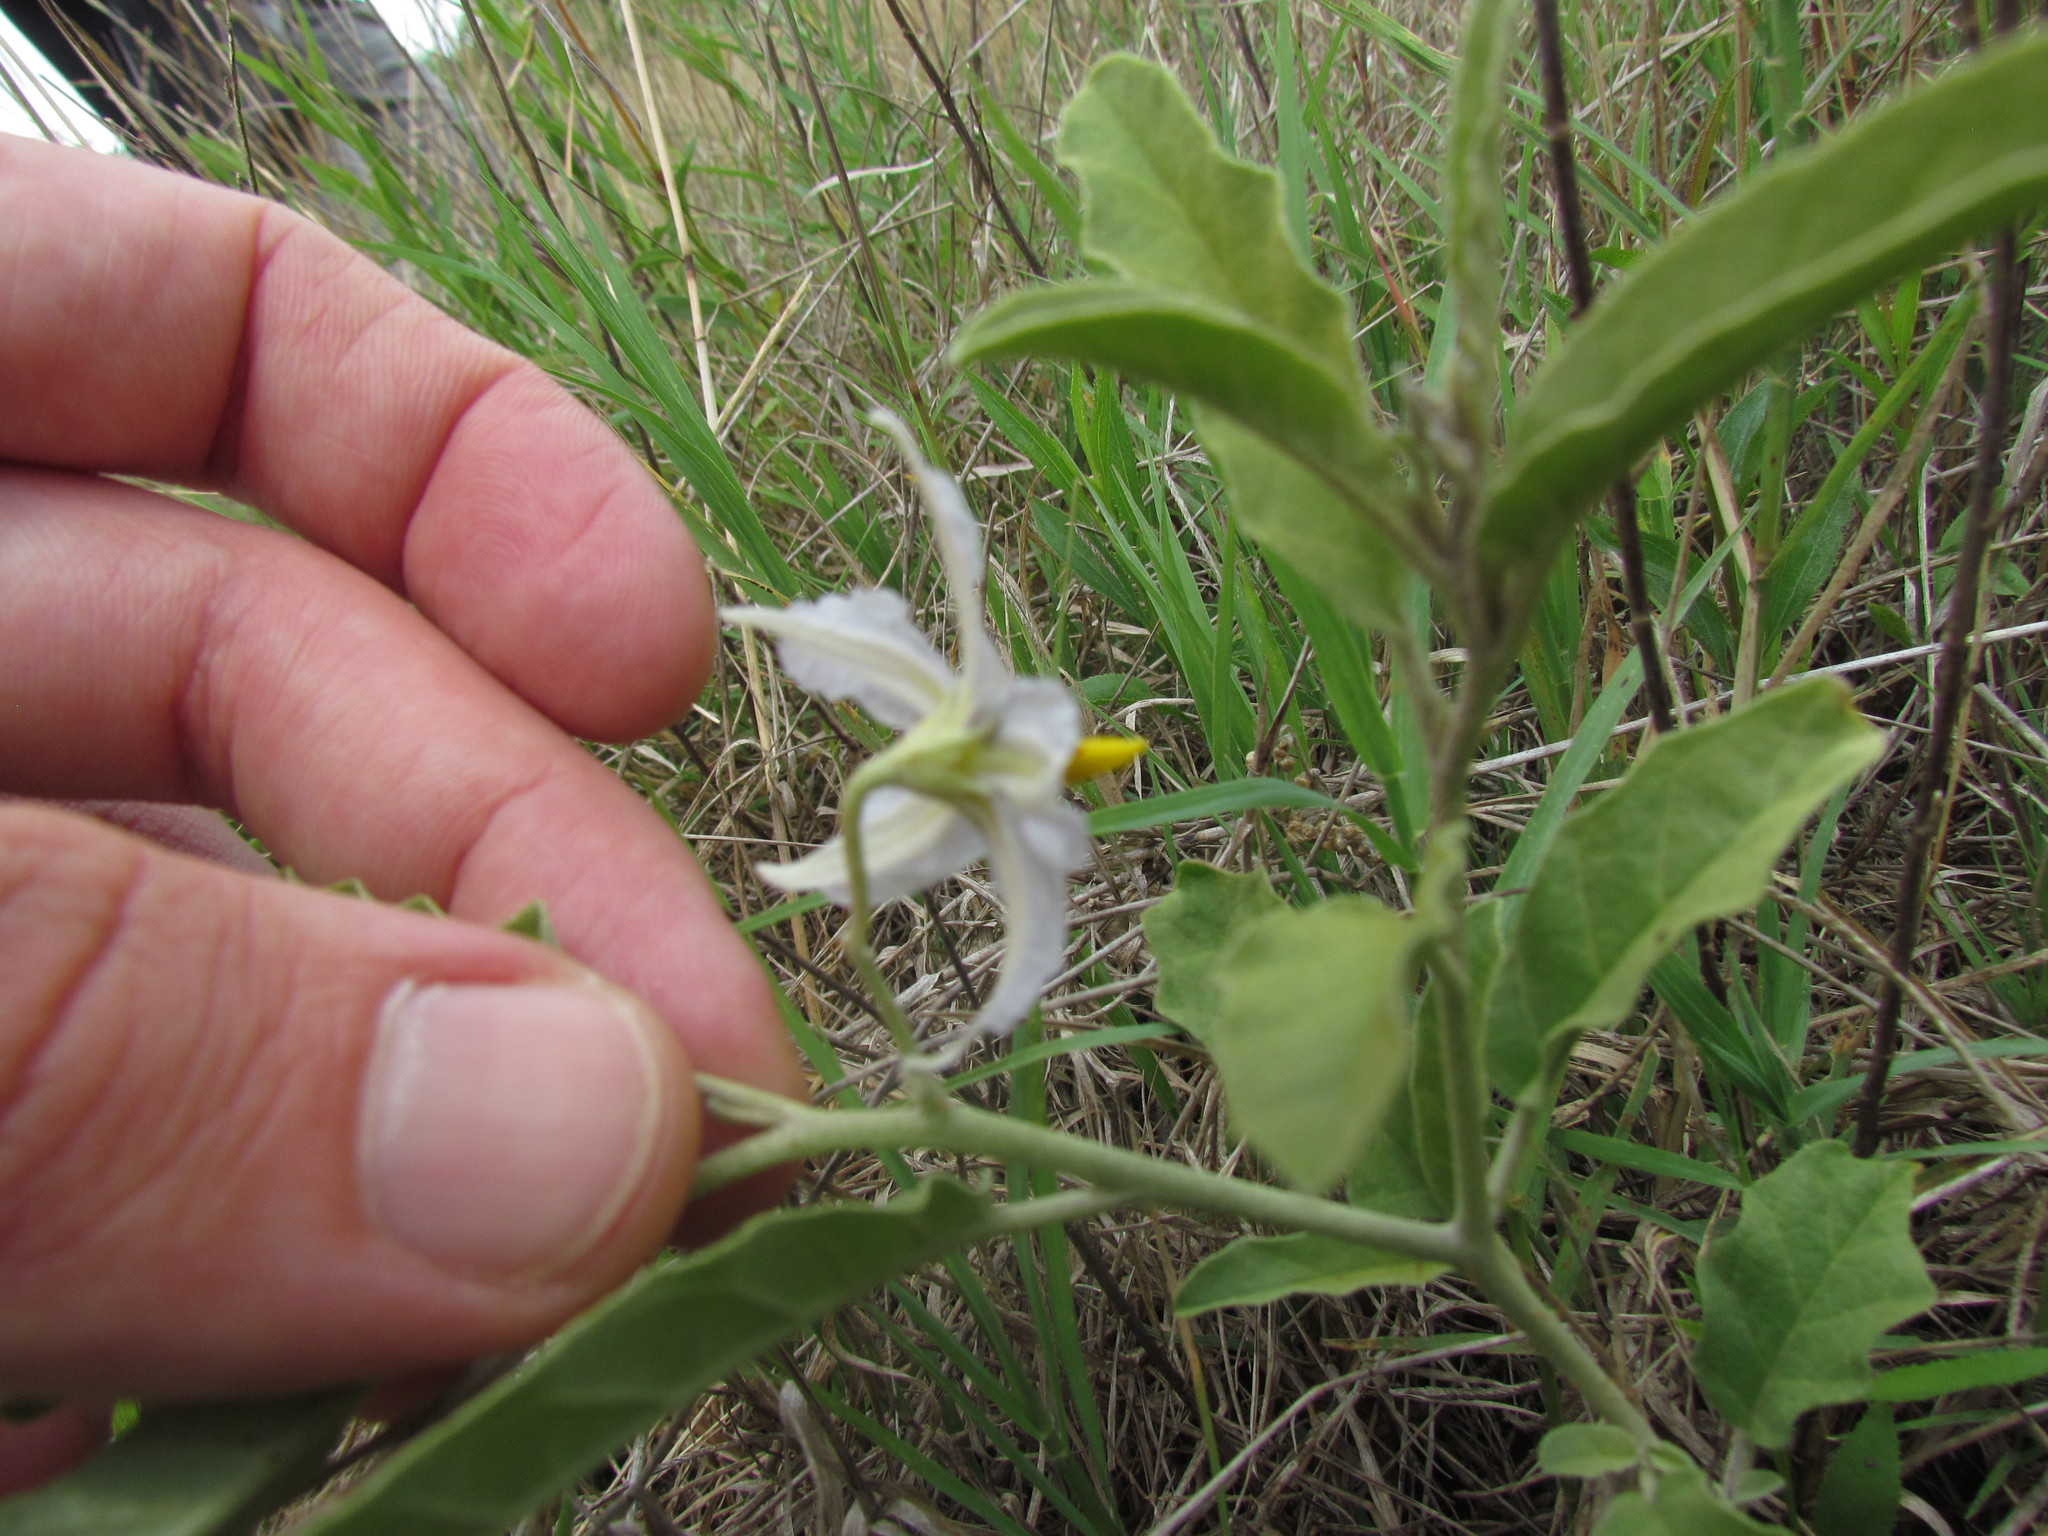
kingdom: Plantae
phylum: Tracheophyta
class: Magnoliopsida
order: Solanales
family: Solanaceae
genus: Solanum
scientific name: Solanum elaeagnifolium
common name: Silverleaf nightshade
